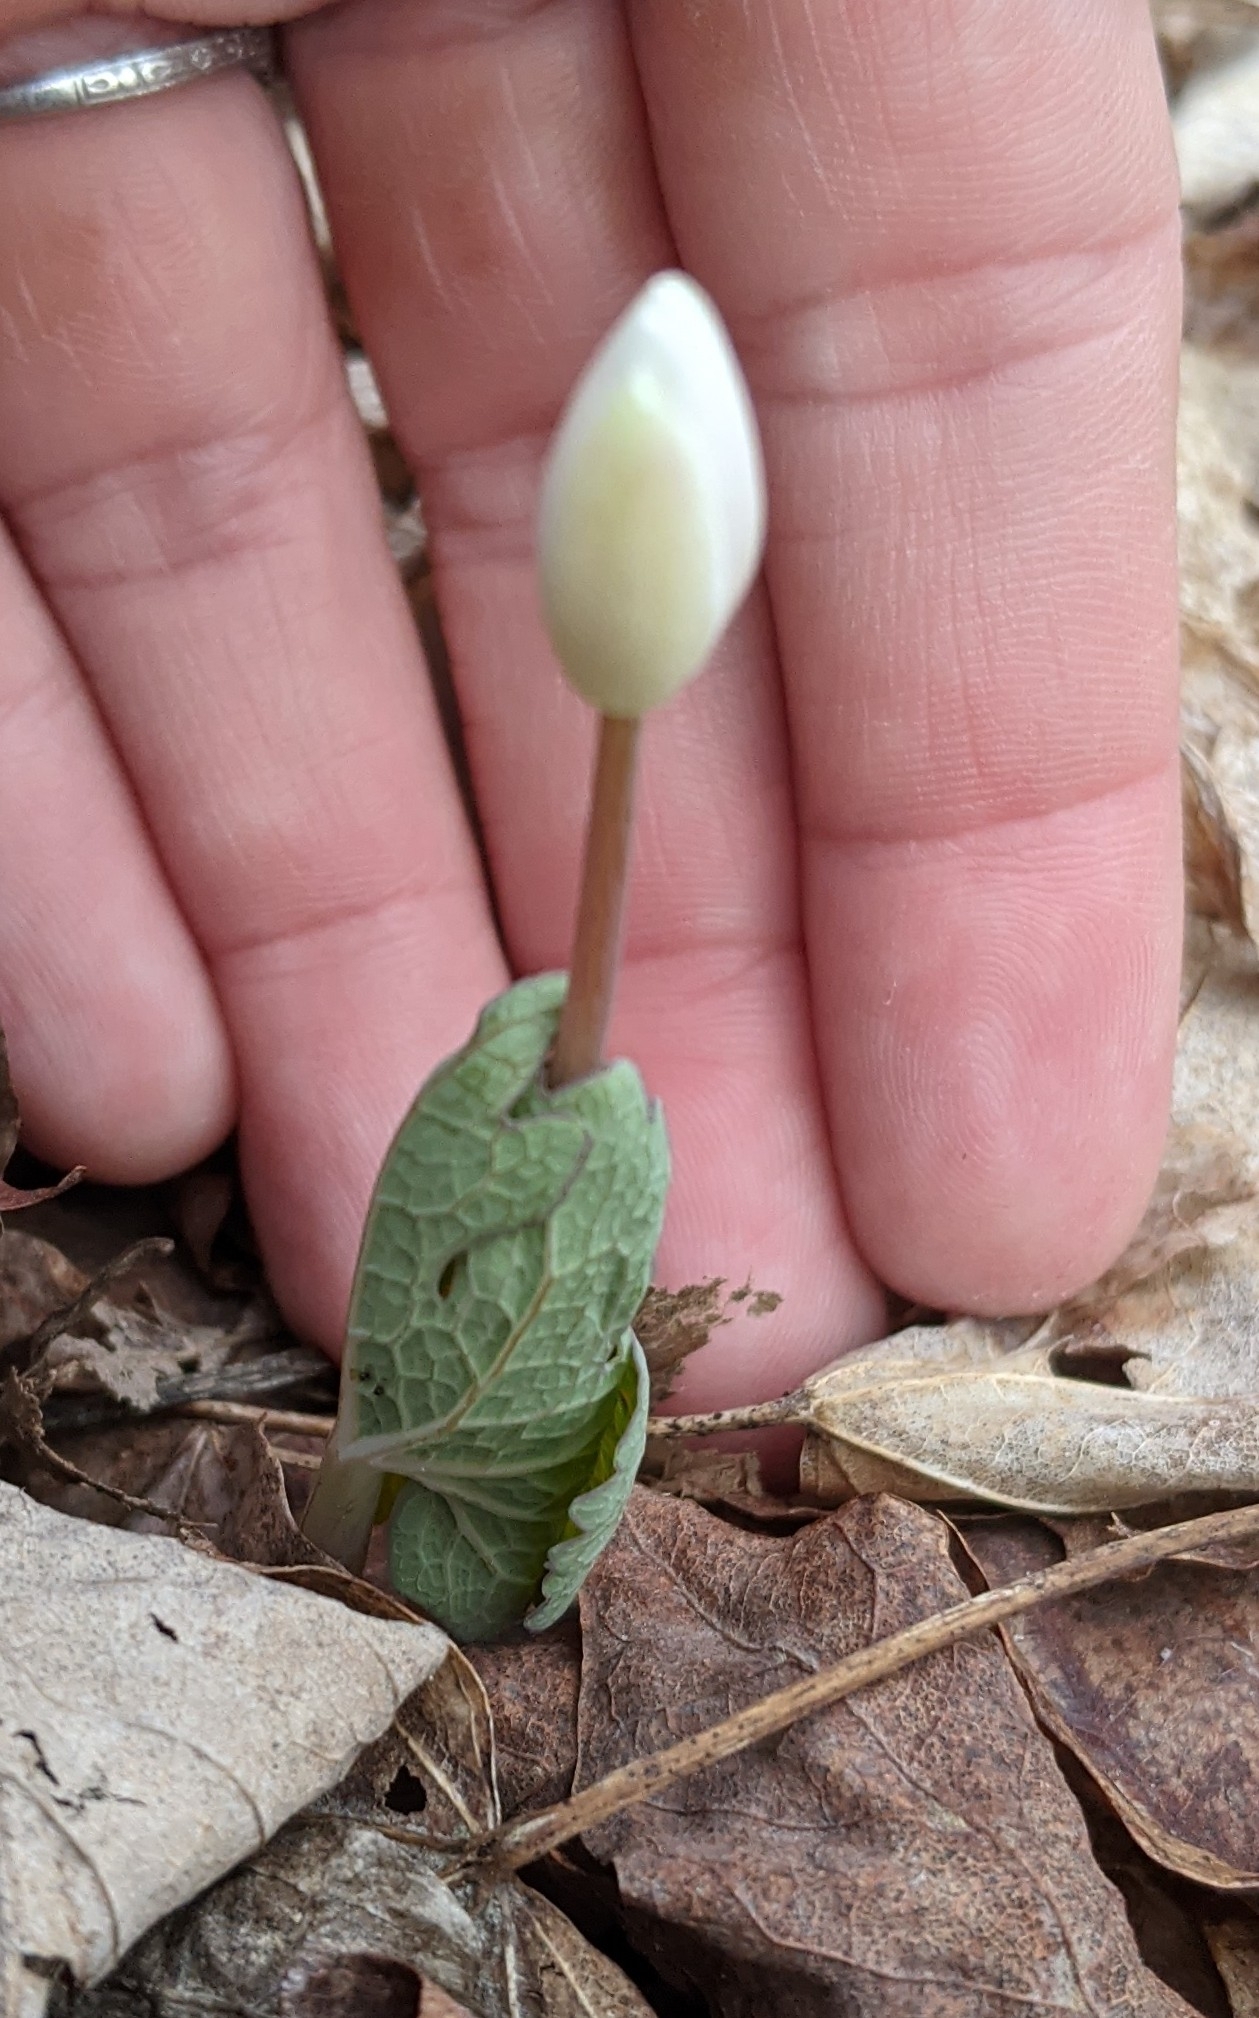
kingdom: Plantae
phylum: Tracheophyta
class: Magnoliopsida
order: Ranunculales
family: Papaveraceae
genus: Sanguinaria
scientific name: Sanguinaria canadensis
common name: Bloodroot
